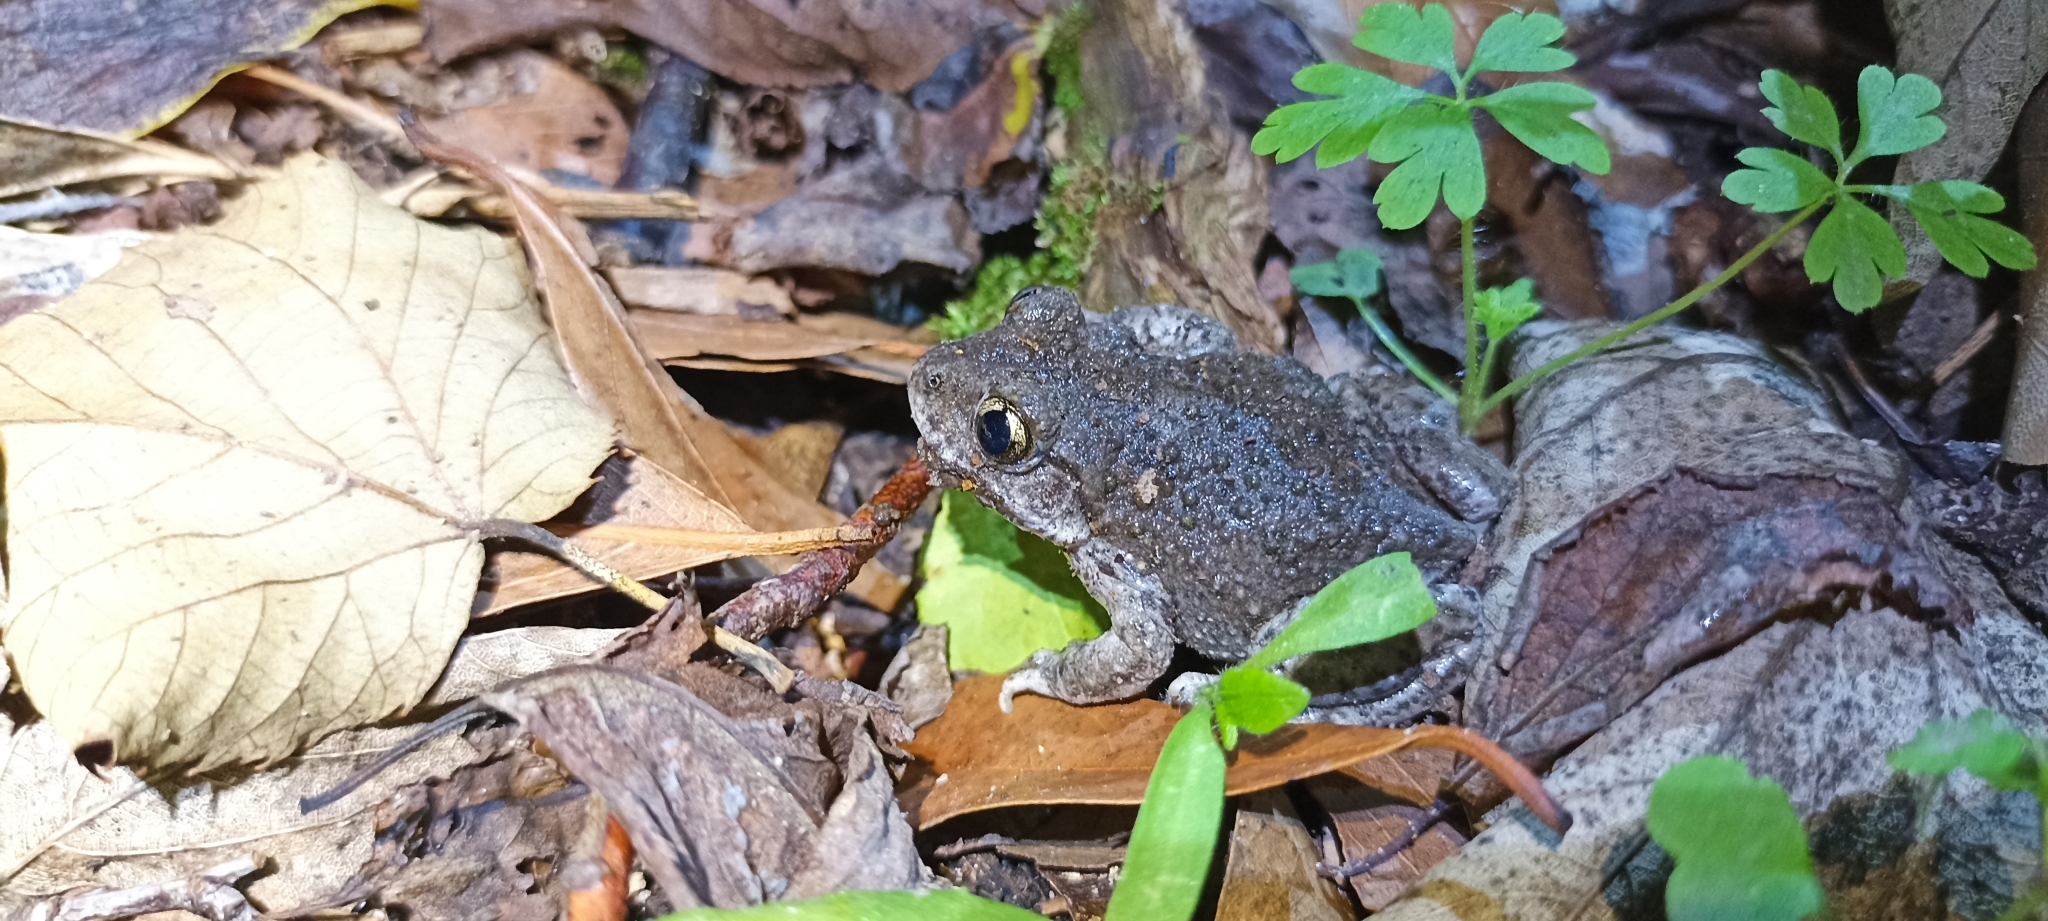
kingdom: Animalia
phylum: Chordata
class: Amphibia
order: Anura
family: Alytidae
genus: Alytes
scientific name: Alytes obstetricans
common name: Midwife toad
